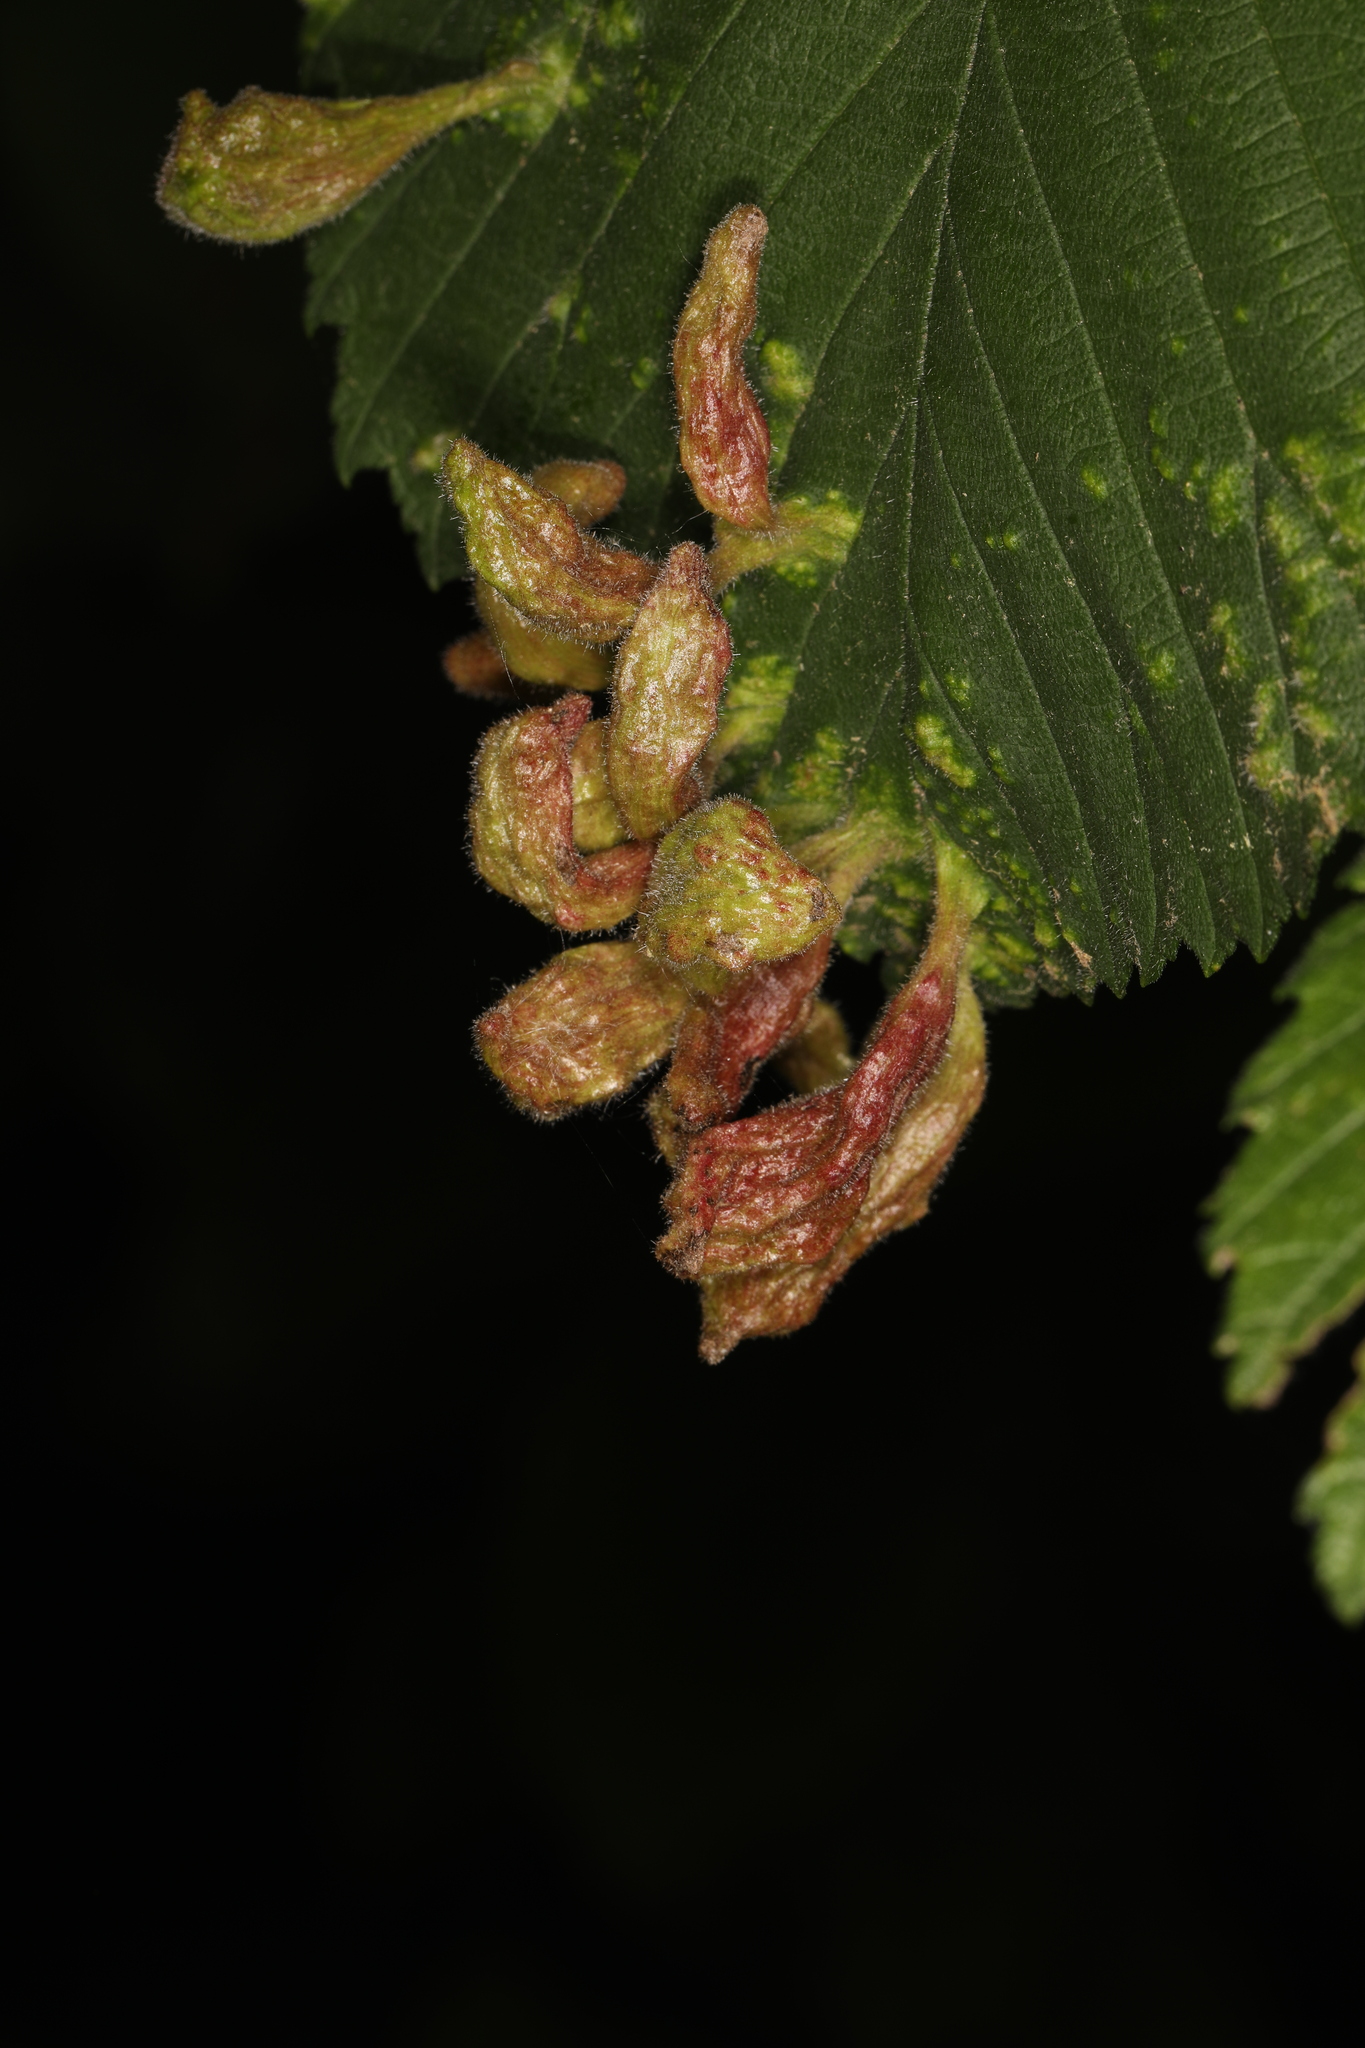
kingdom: Animalia
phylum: Arthropoda
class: Insecta
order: Hemiptera
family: Aphididae
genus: Tetraneura
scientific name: Tetraneura nigriabdominalis
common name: Aphid
